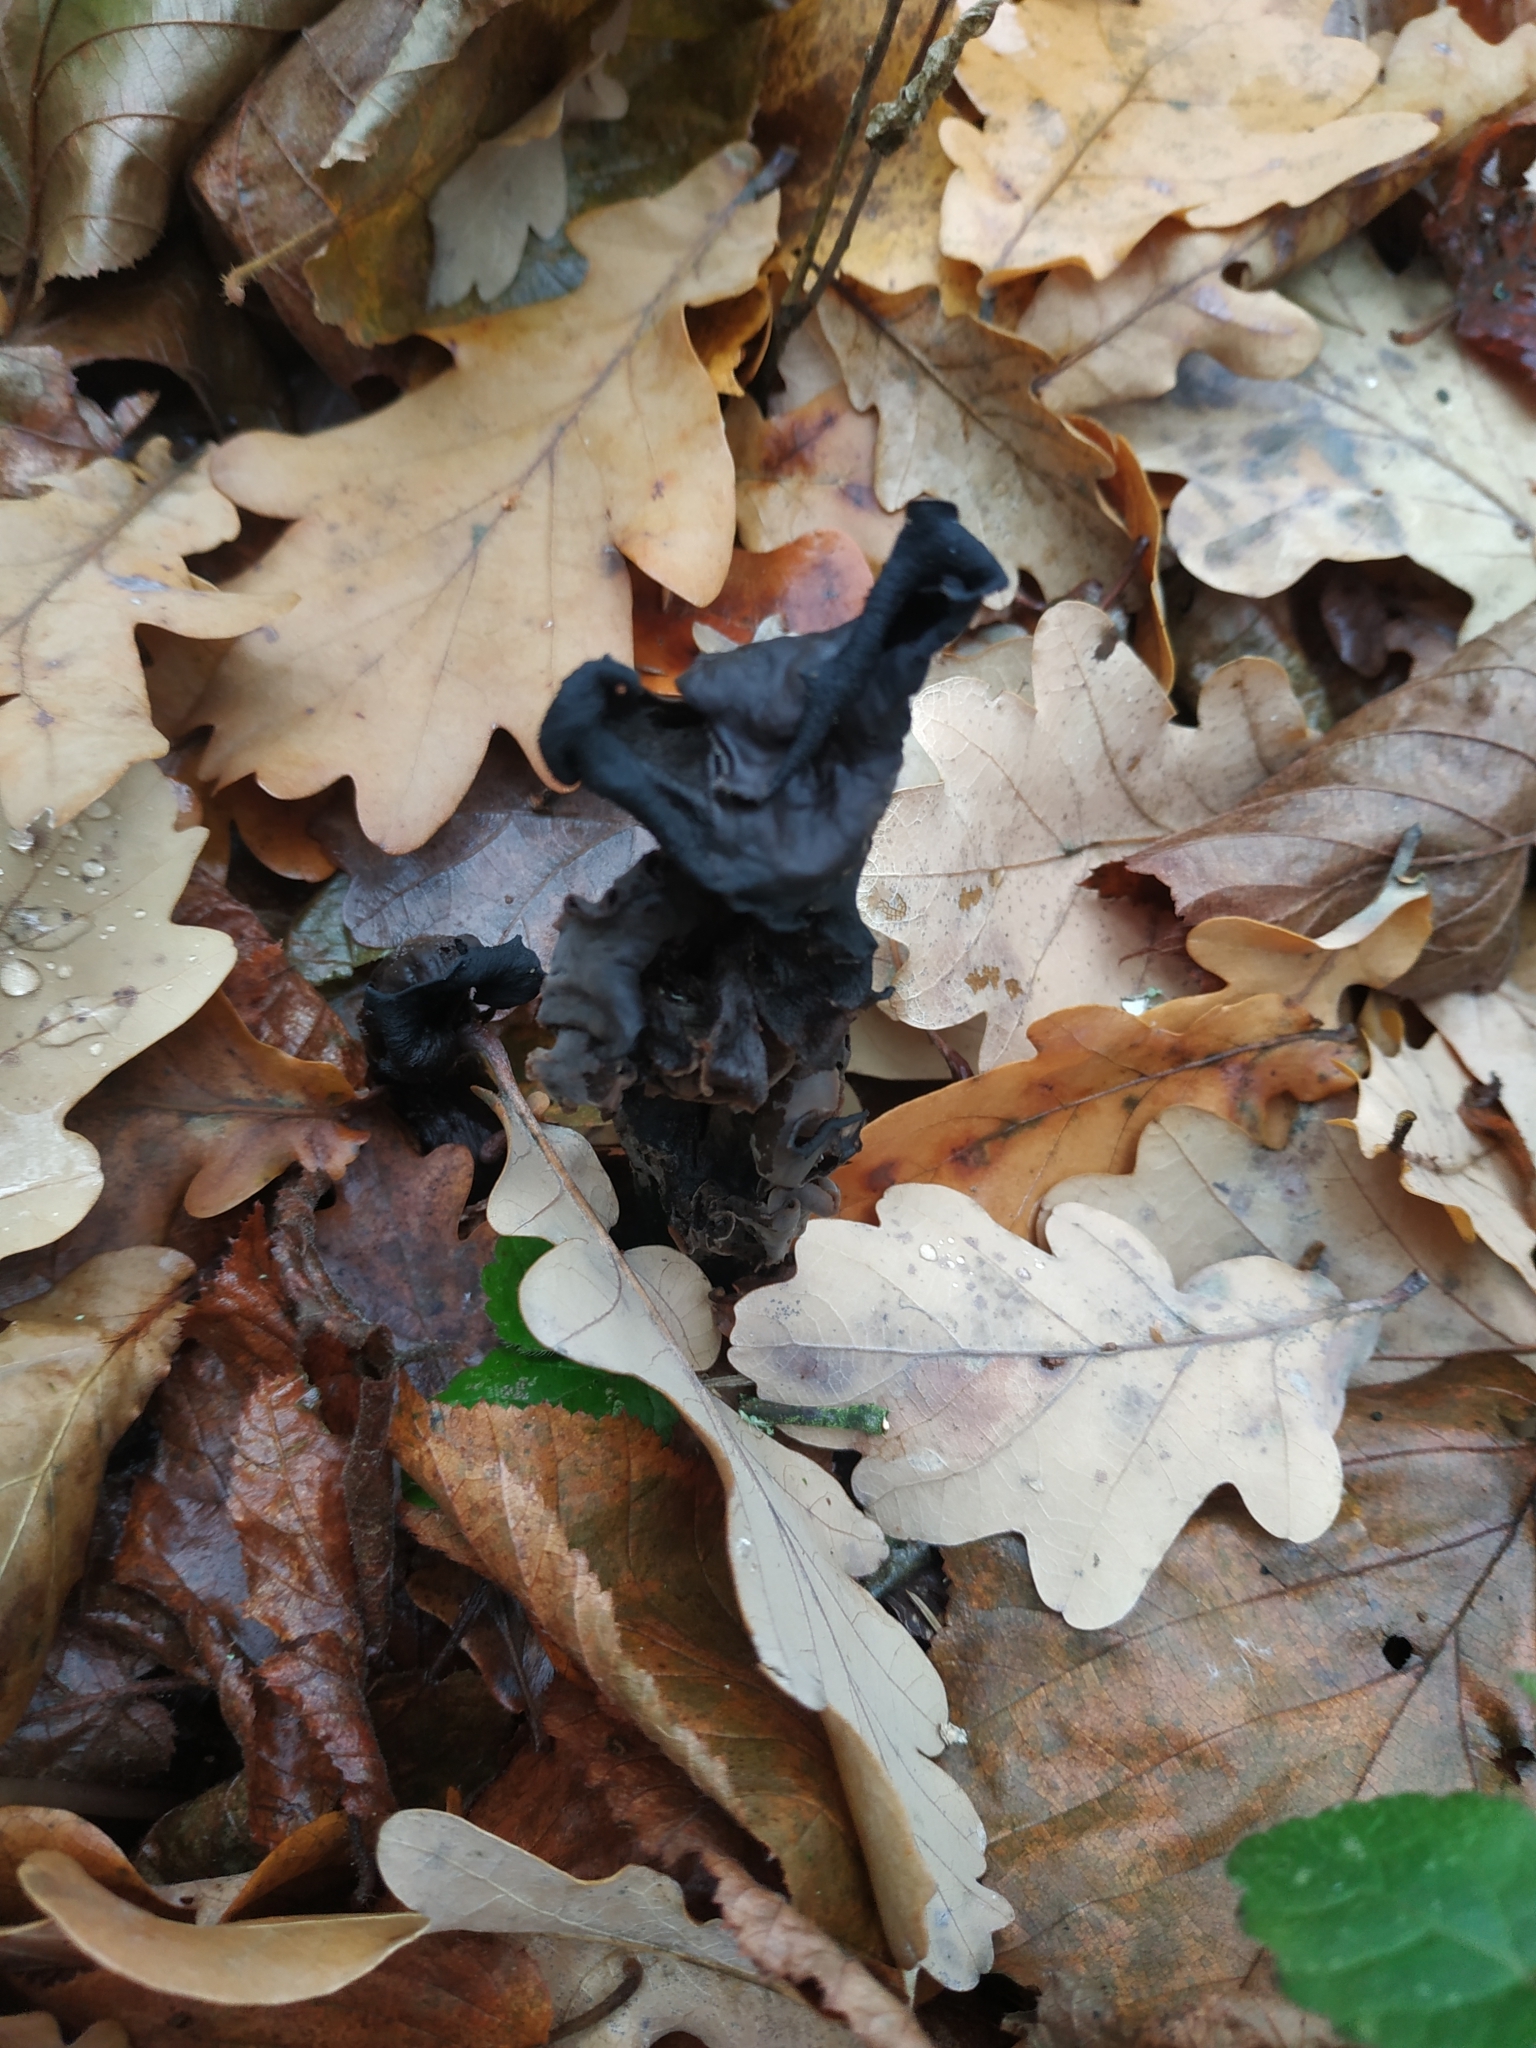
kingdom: Fungi
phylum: Basidiomycota
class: Agaricomycetes
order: Cantharellales
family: Hydnaceae
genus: Craterellus
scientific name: Craterellus cornucopioides
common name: Horn of plenty
